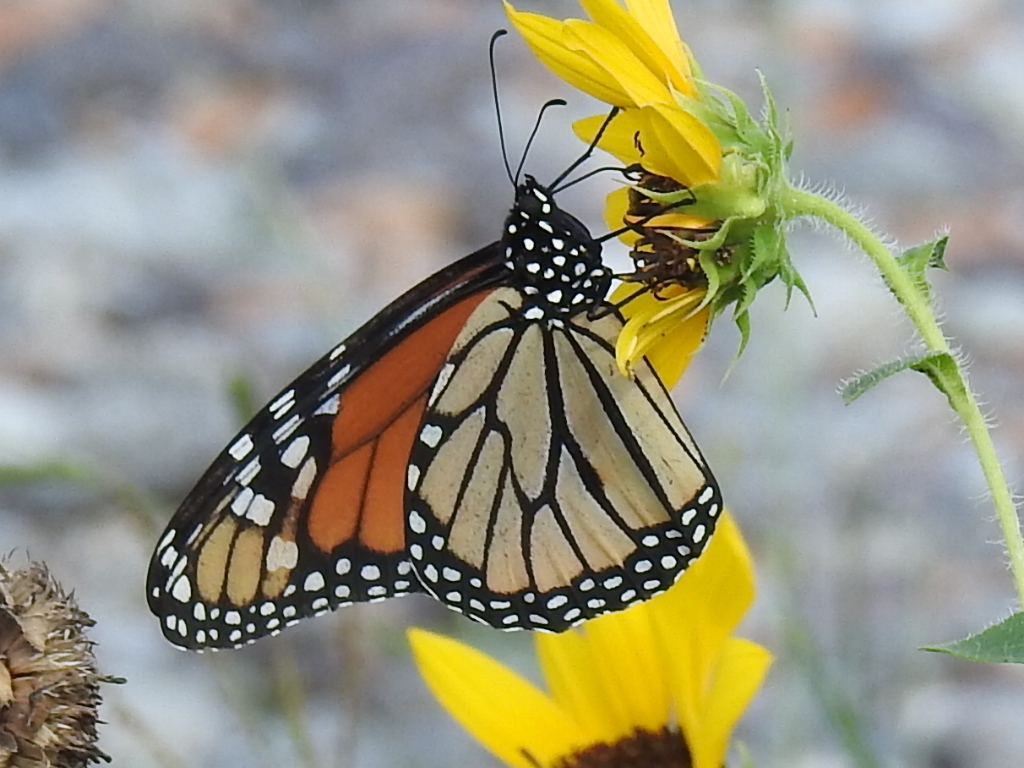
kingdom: Animalia
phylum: Arthropoda
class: Insecta
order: Lepidoptera
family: Nymphalidae
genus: Danaus
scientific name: Danaus plexippus
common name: Monarch
